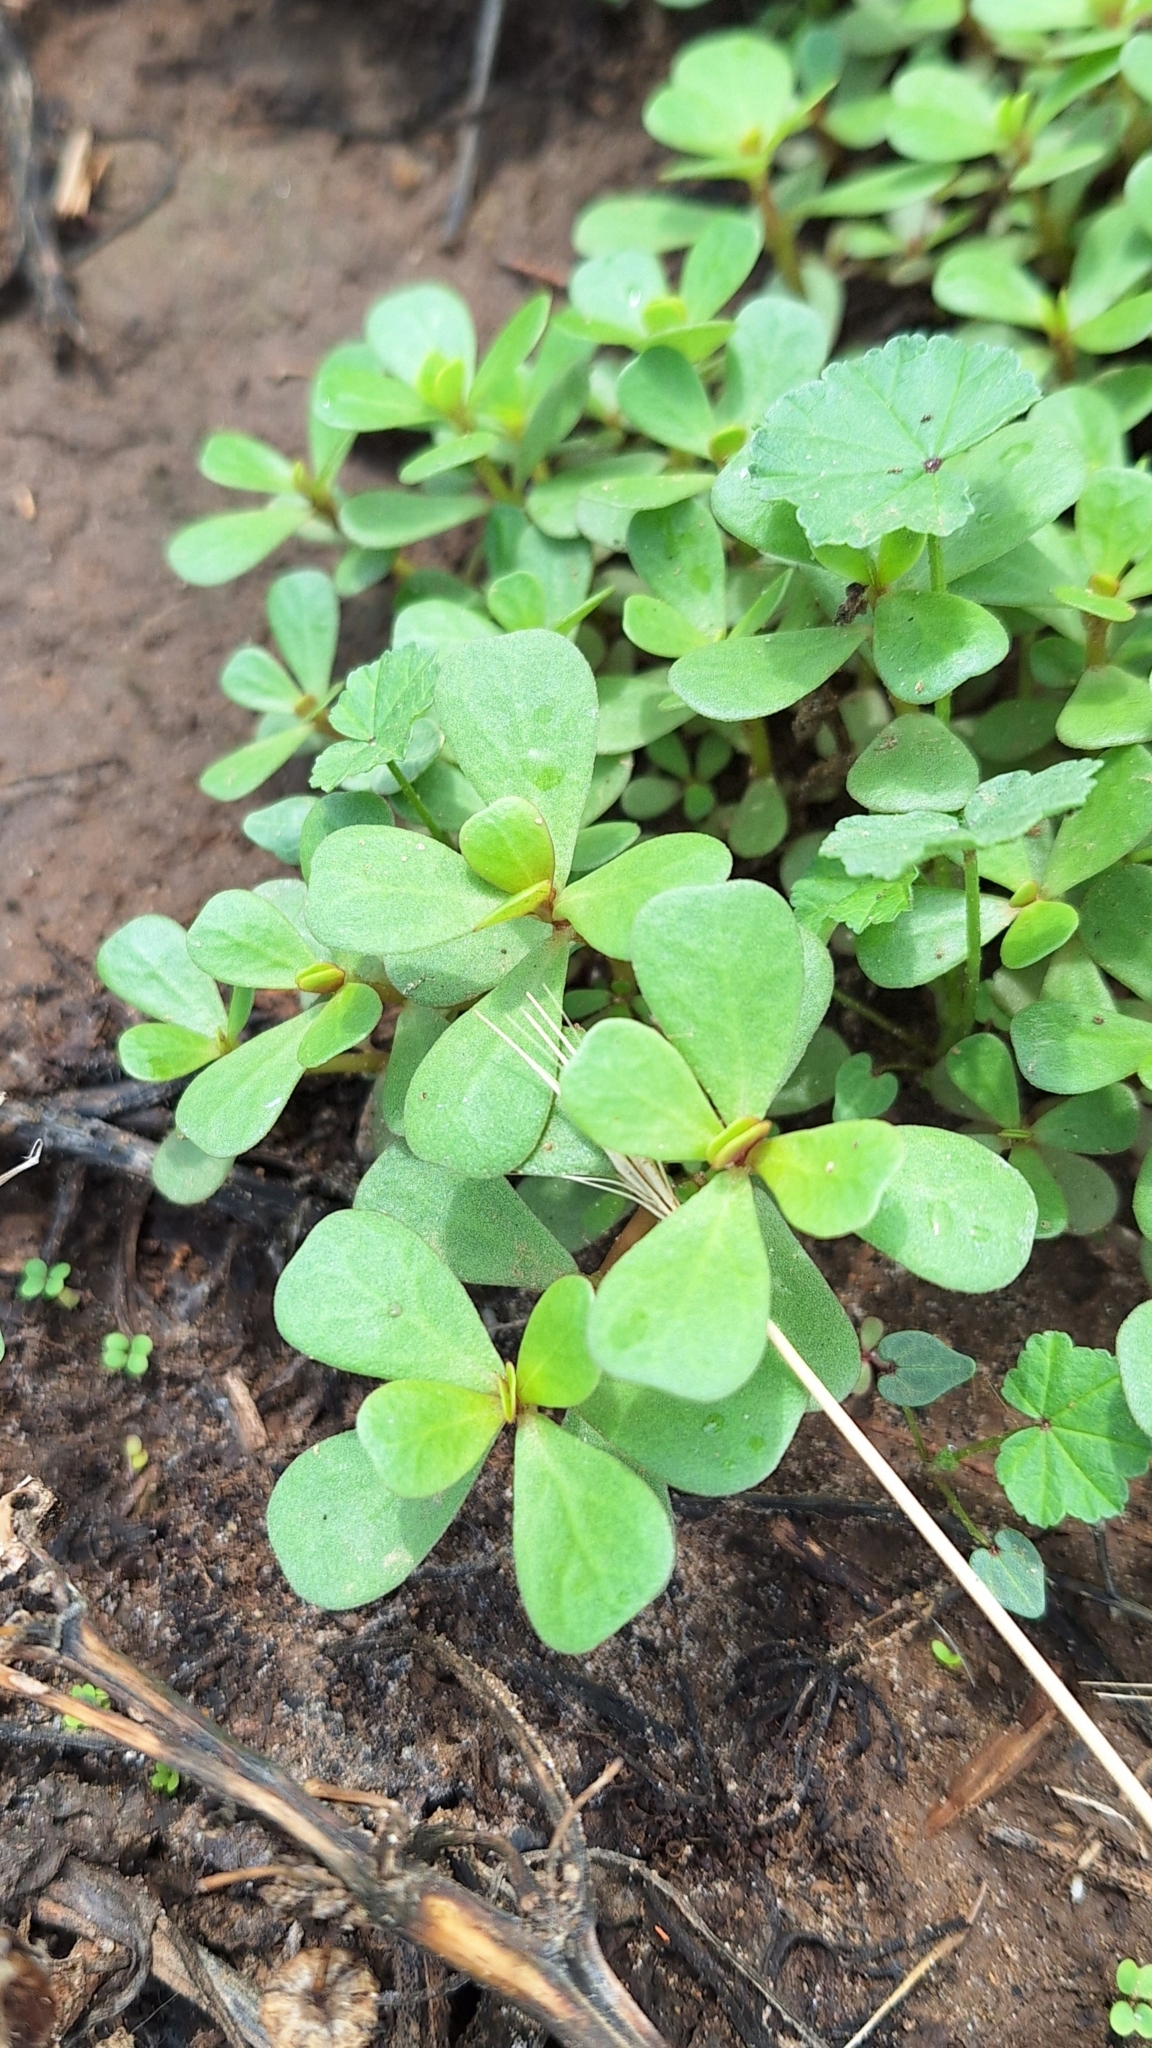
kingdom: Plantae
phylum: Tracheophyta
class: Magnoliopsida
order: Caryophyllales
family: Portulacaceae
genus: Portulaca
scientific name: Portulaca oleracea
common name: Common purslane
